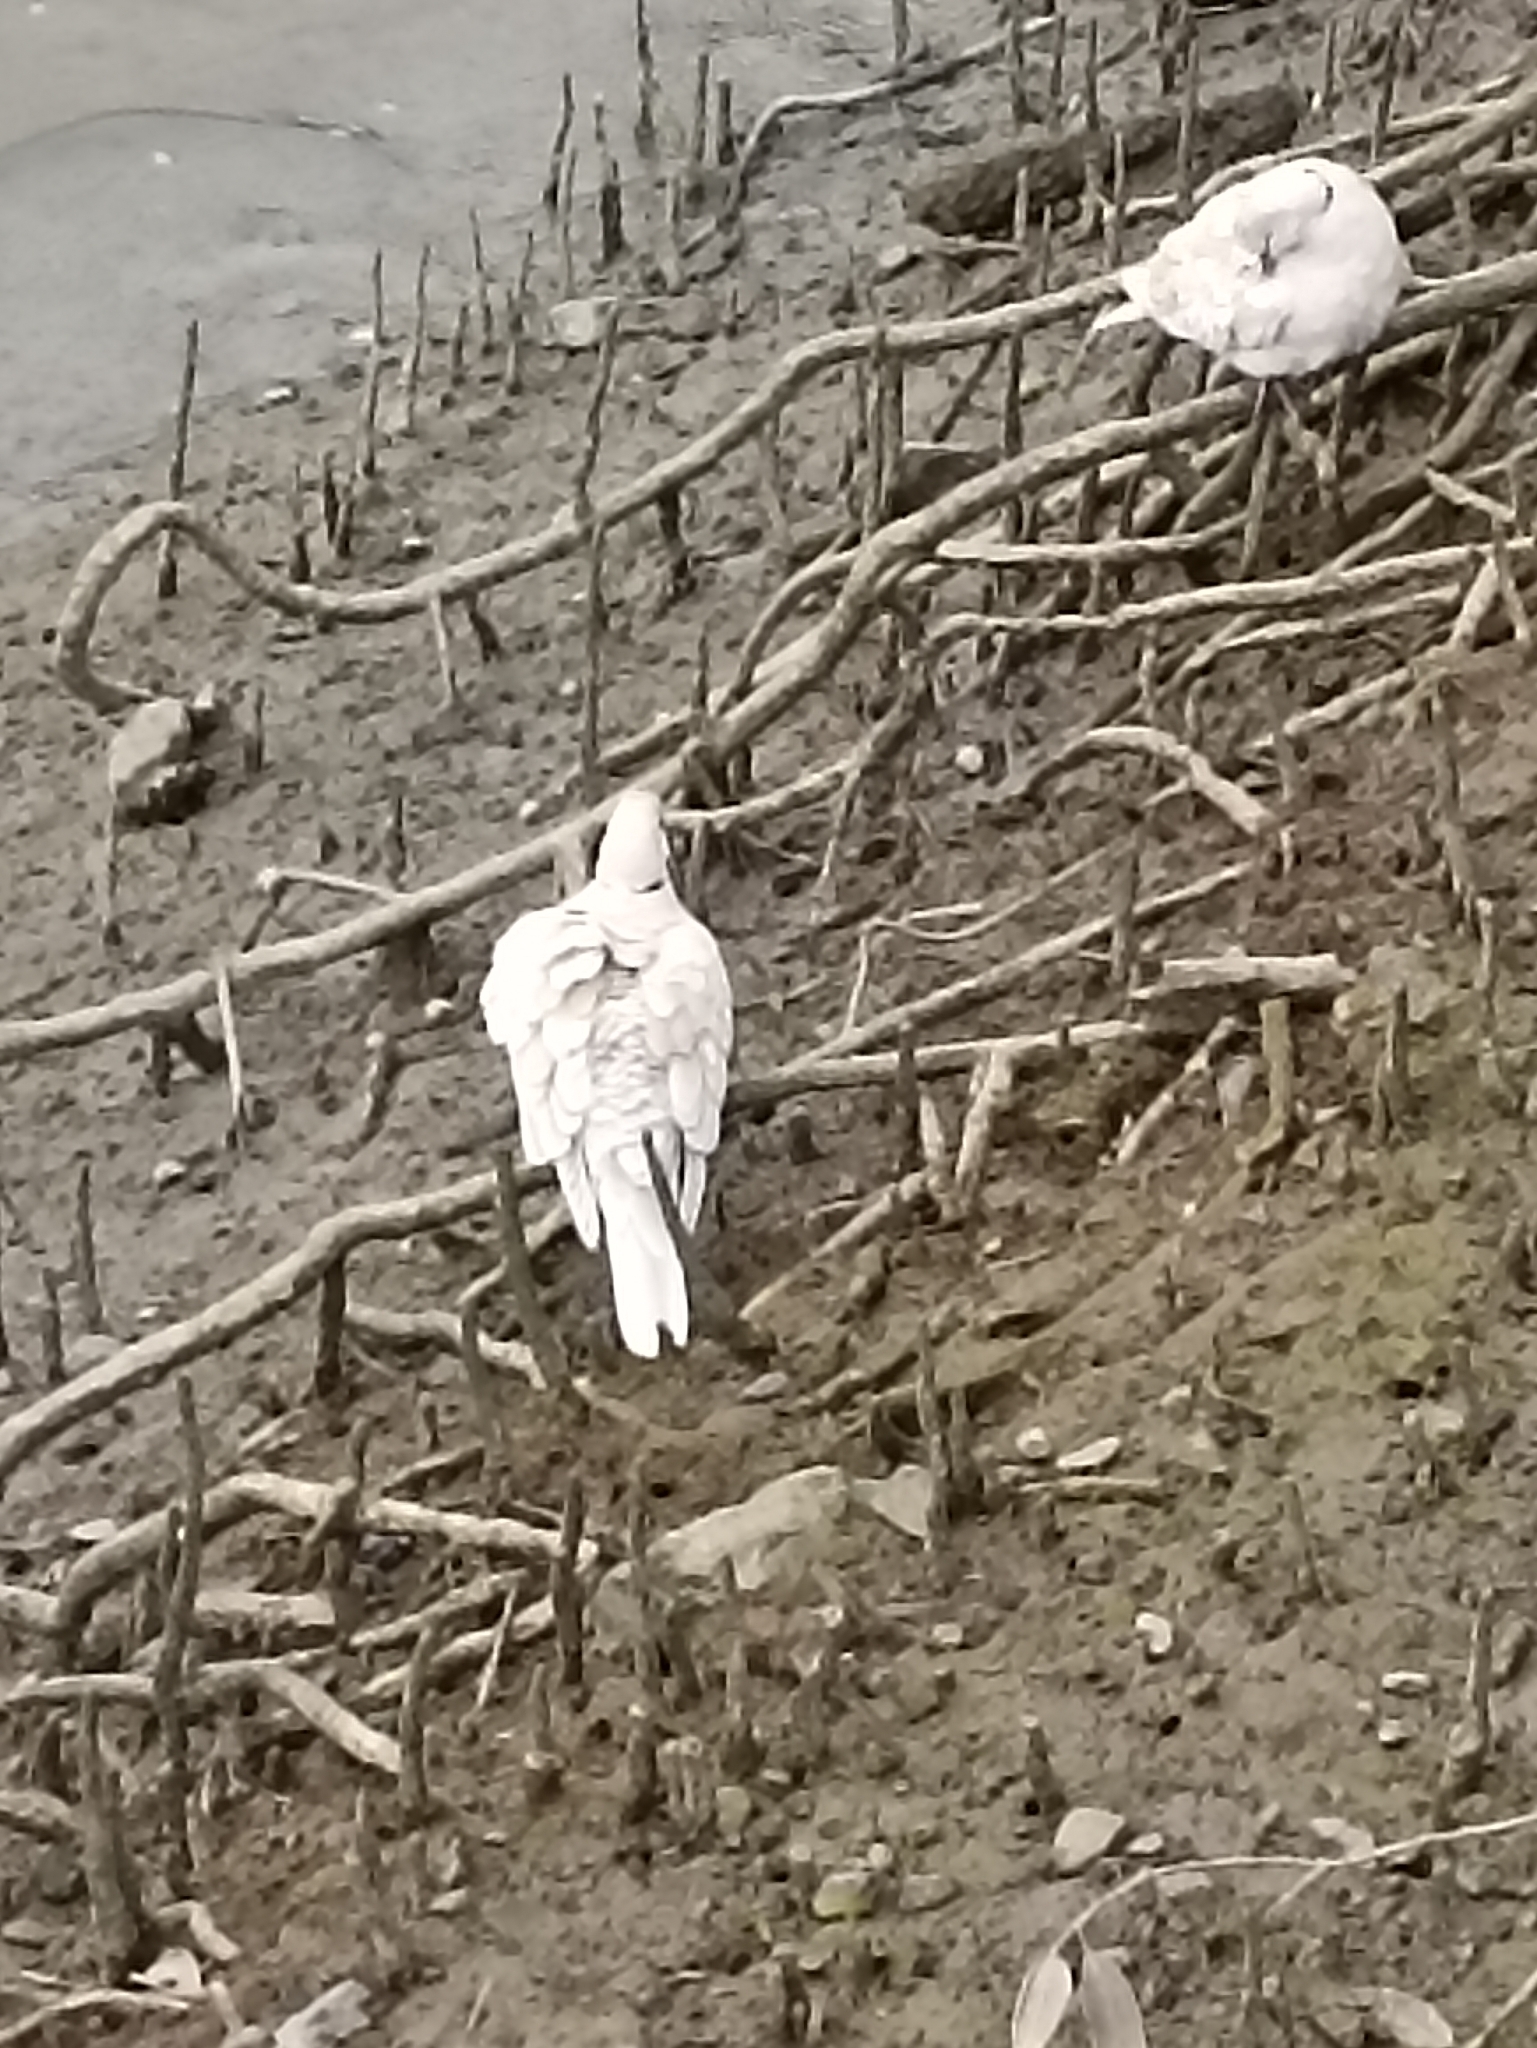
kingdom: Animalia
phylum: Chordata
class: Aves
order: Columbiformes
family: Columbidae
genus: Streptopelia
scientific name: Streptopelia roseogrisea
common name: African collared dove
